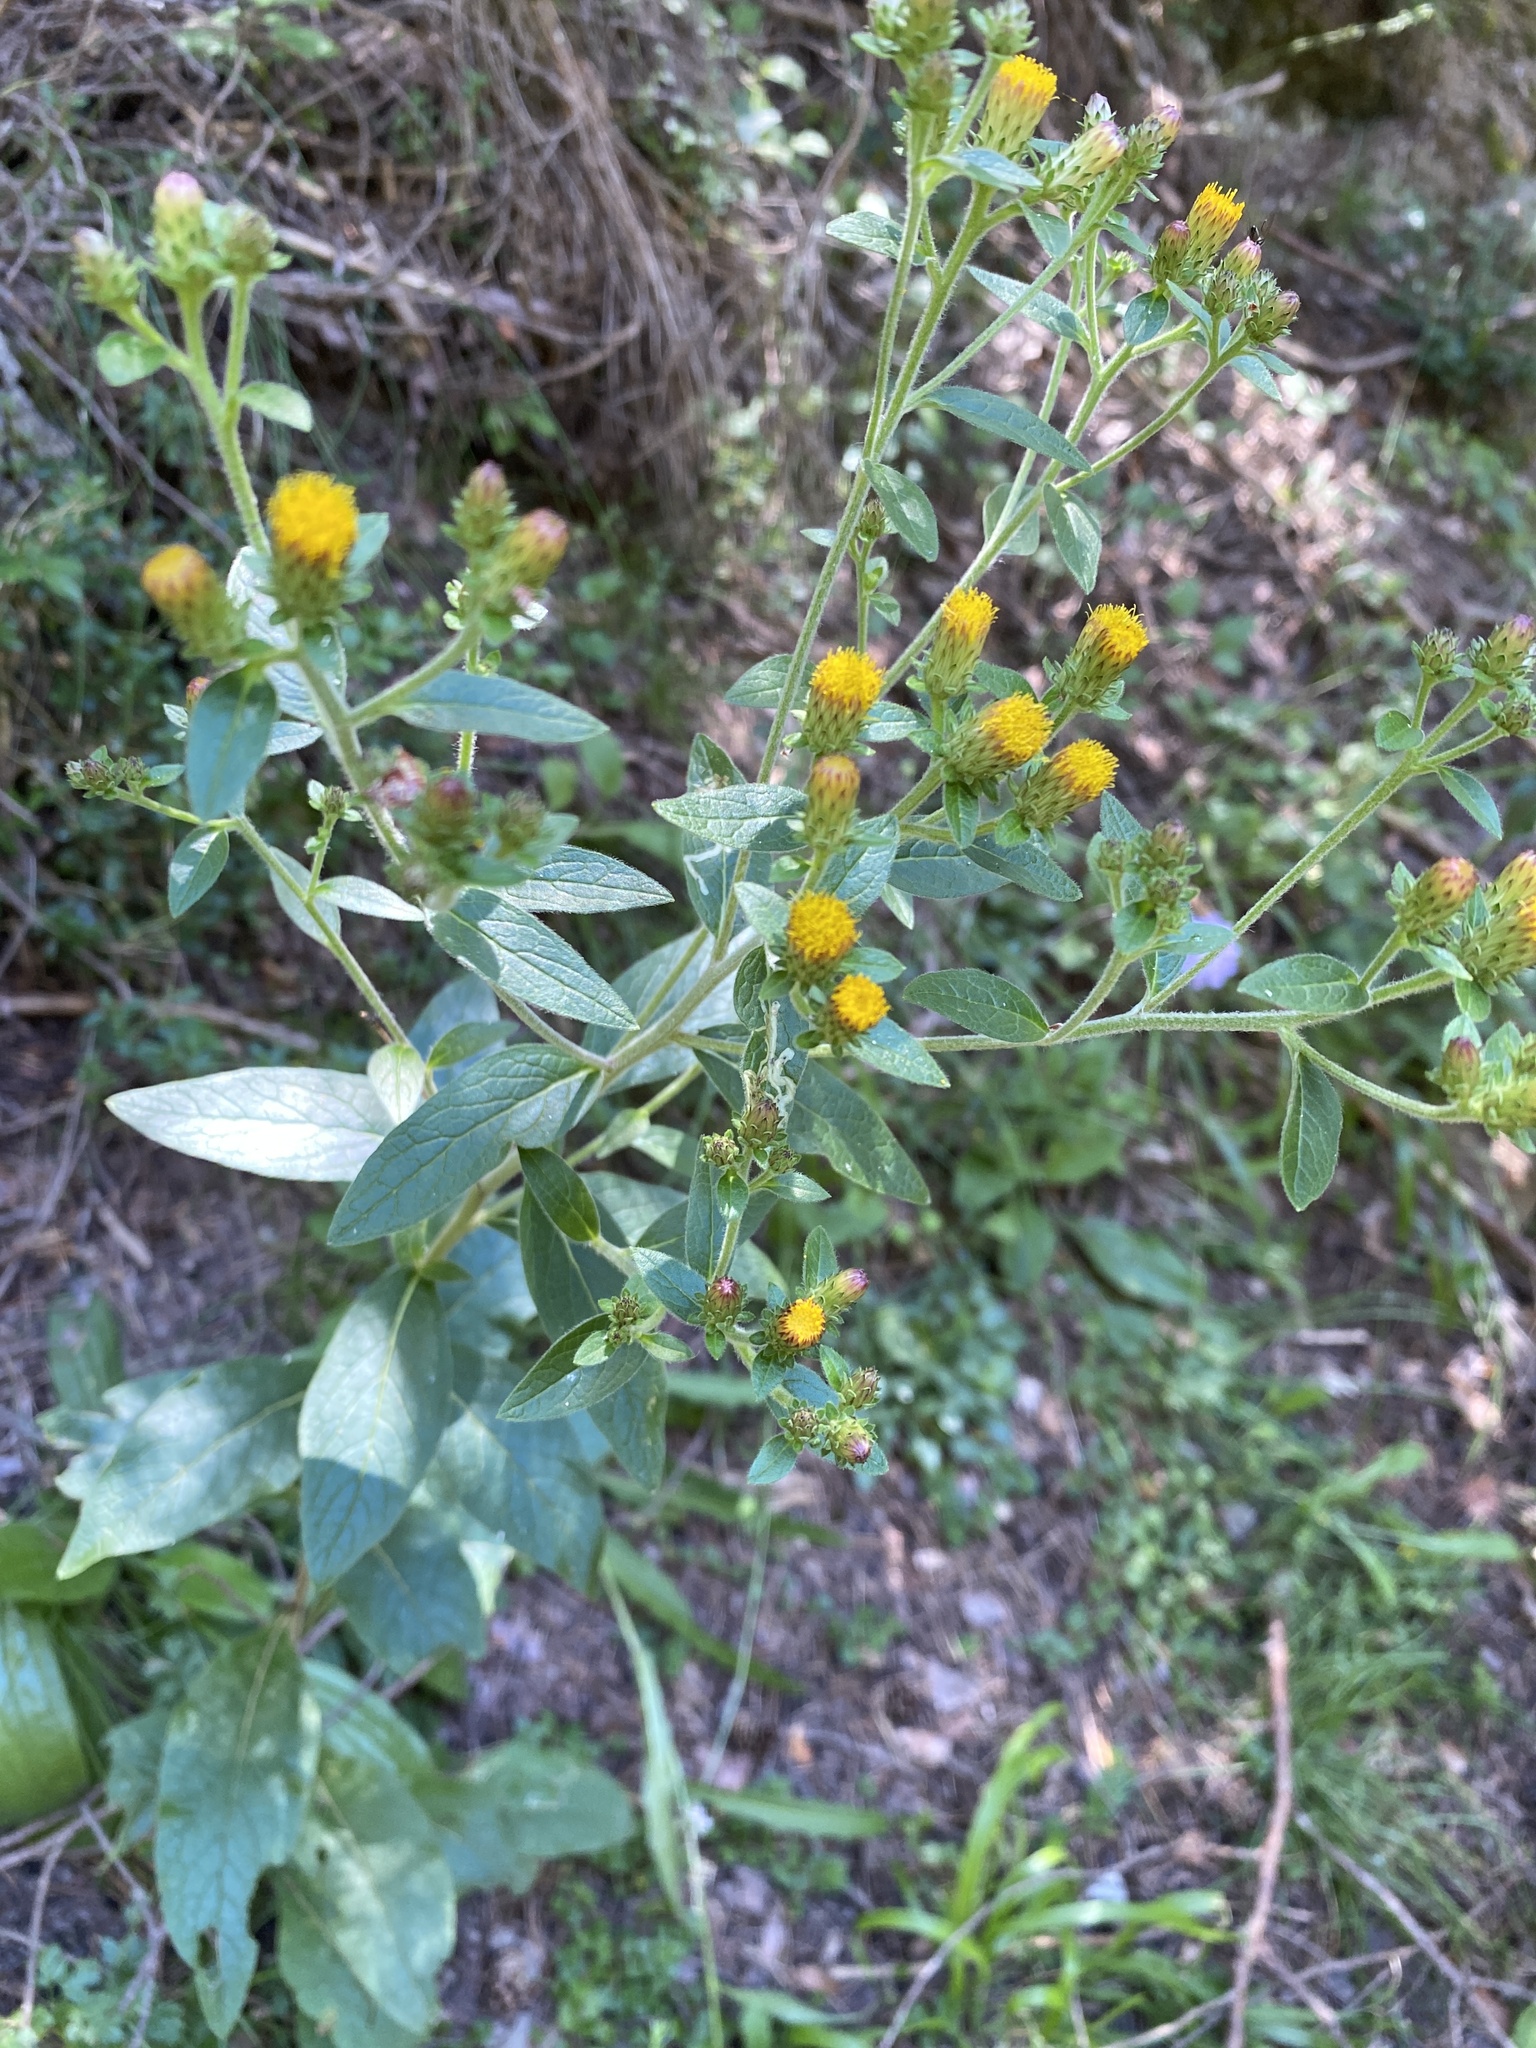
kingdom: Plantae
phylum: Tracheophyta
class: Magnoliopsida
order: Asterales
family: Asteraceae
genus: Pentanema
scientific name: Pentanema squarrosum
